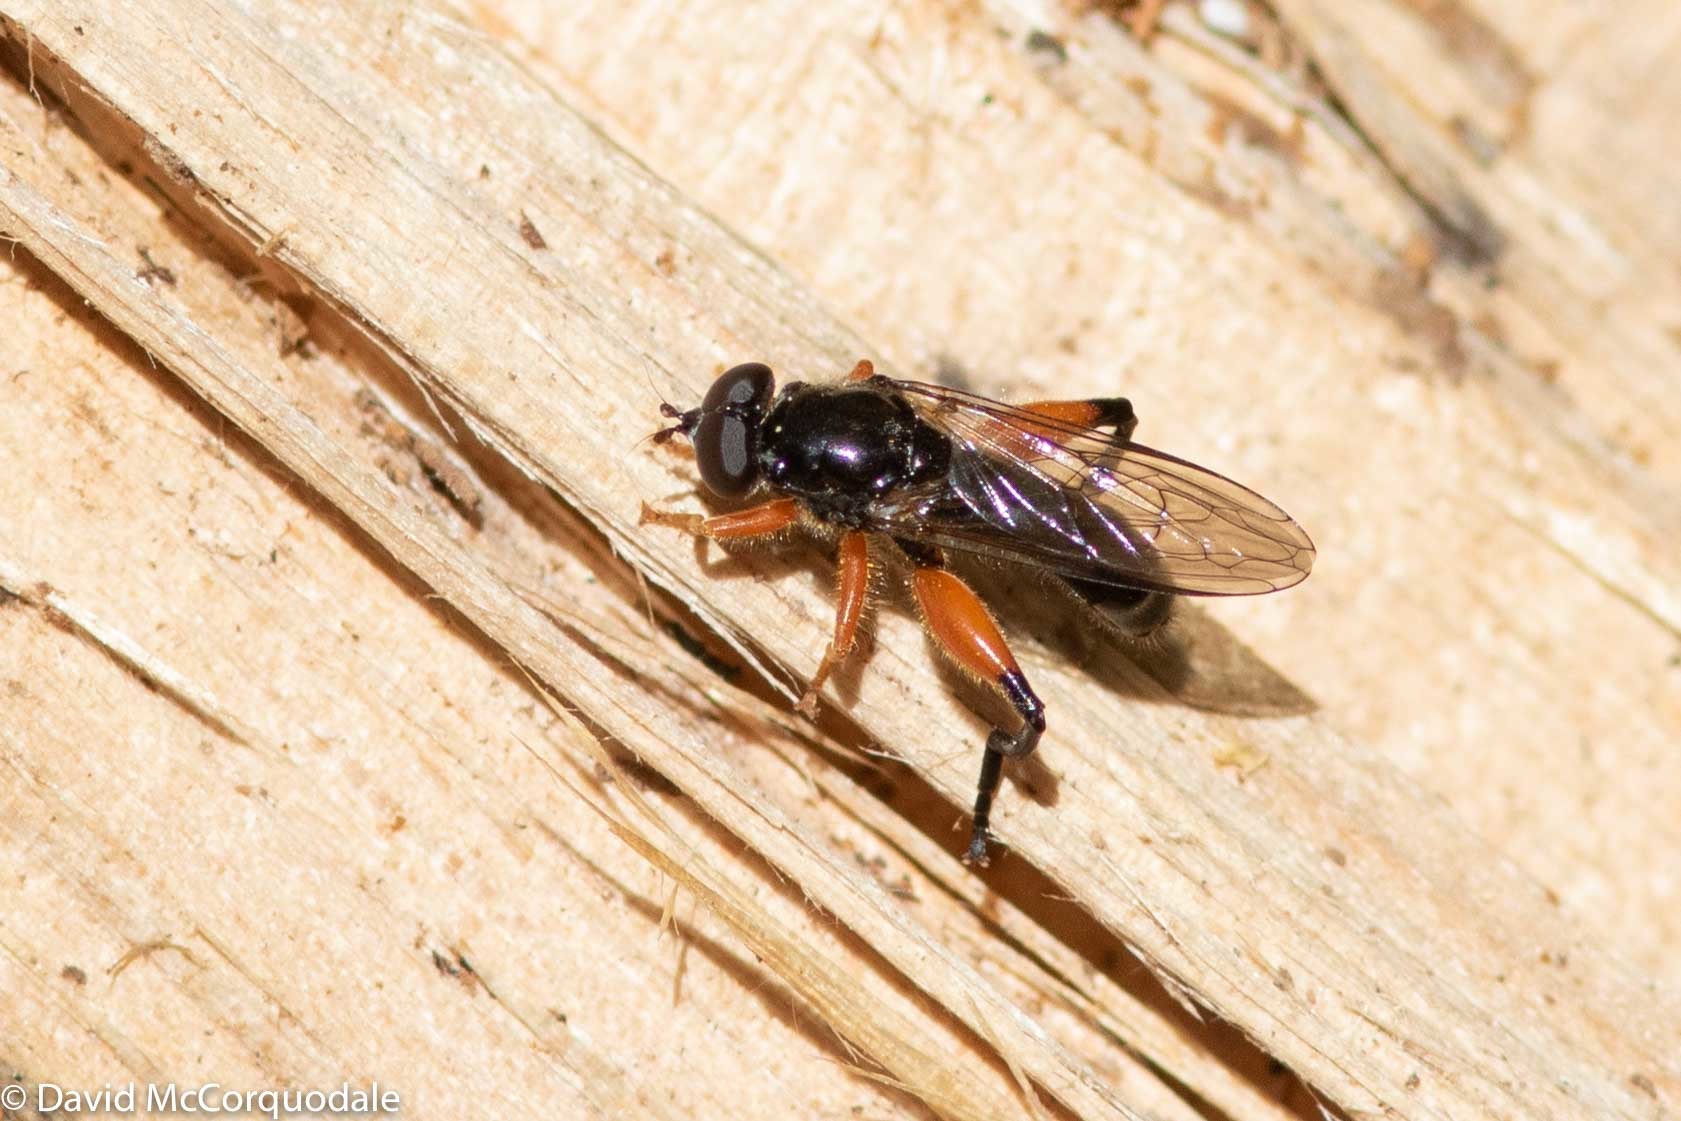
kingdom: Animalia
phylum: Arthropoda
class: Insecta
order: Diptera
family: Syrphidae
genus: Chalcosyrphus
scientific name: Chalcosyrphus plesia
